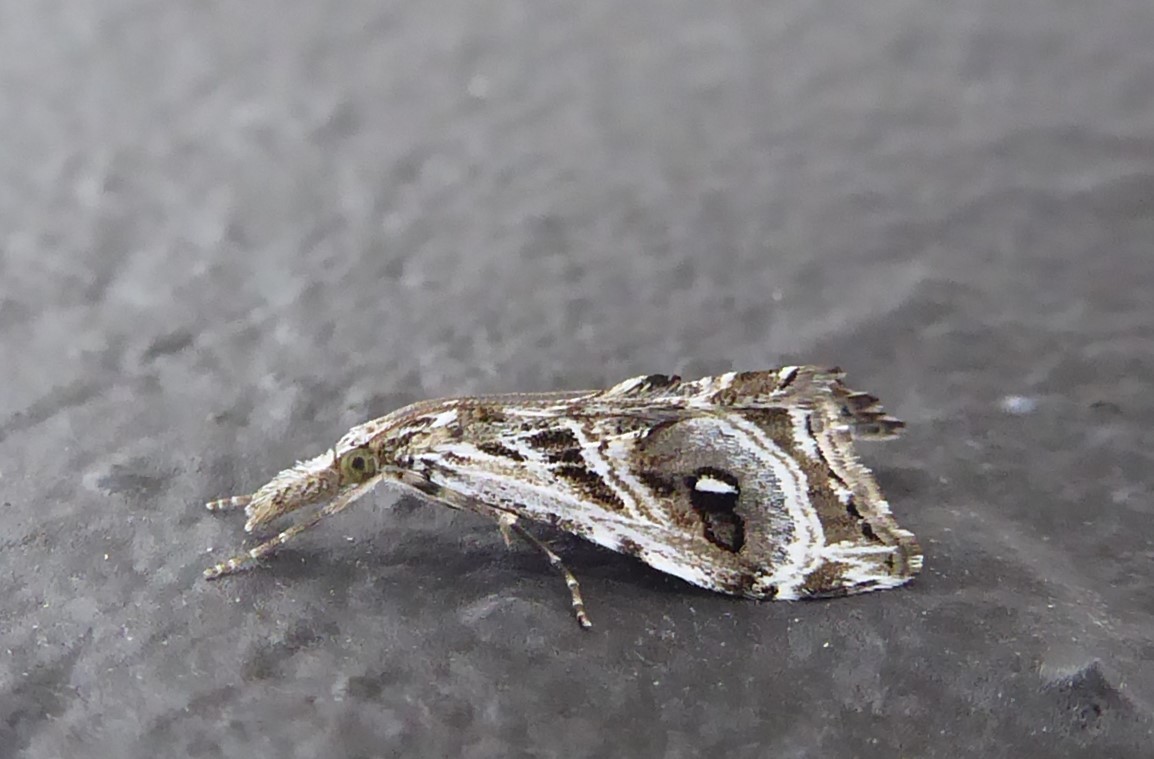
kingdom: Animalia
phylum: Arthropoda
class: Insecta
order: Lepidoptera
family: Crambidae
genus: Gadira
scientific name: Gadira acerella
